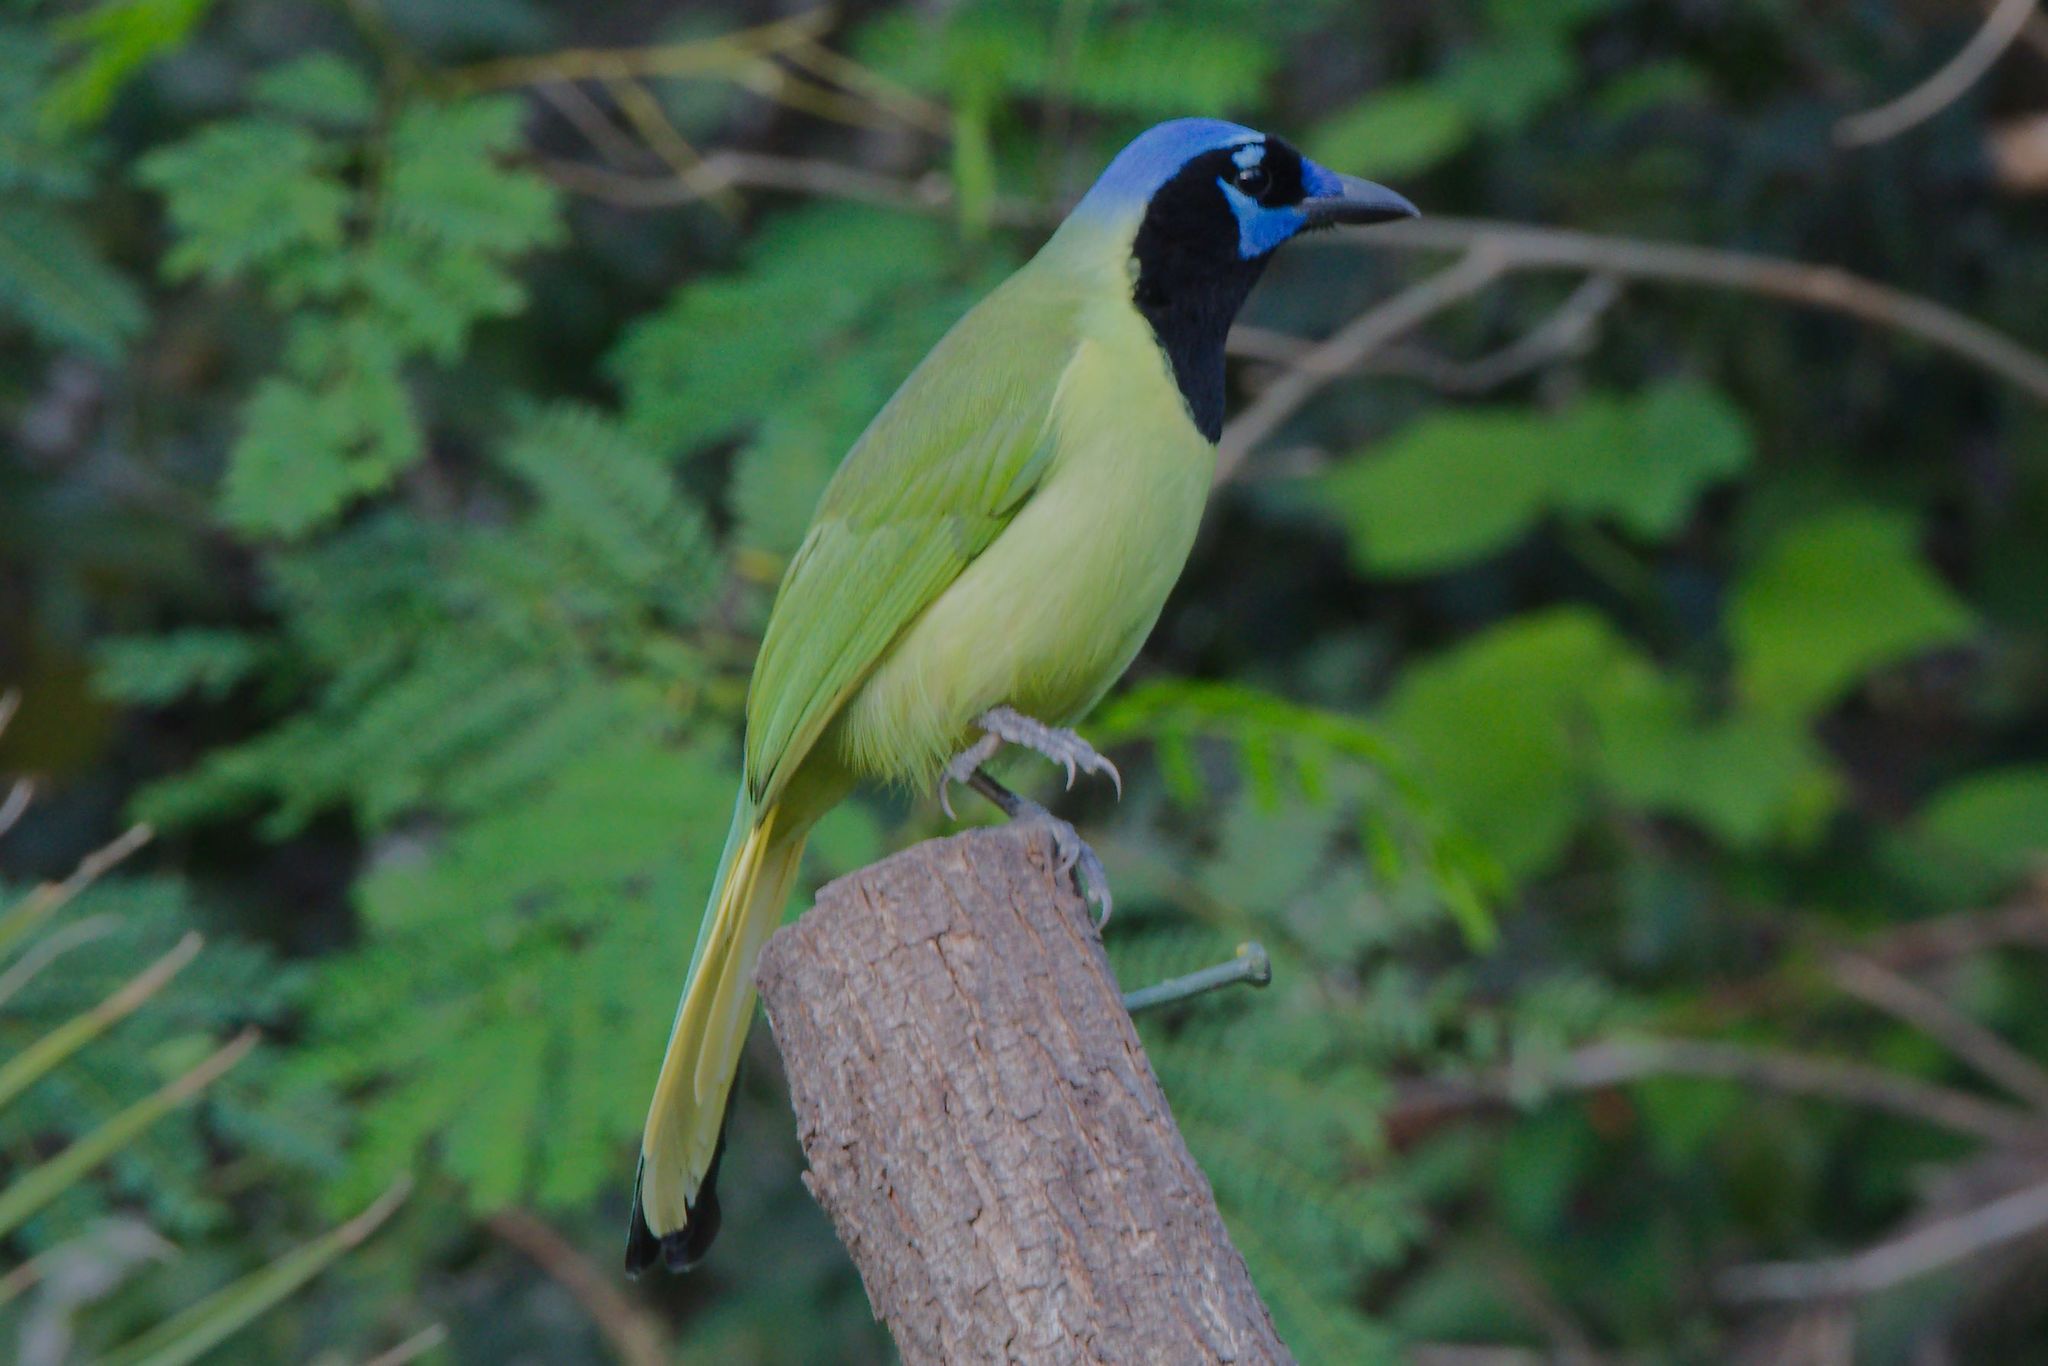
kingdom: Animalia
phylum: Chordata
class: Aves
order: Passeriformes
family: Corvidae
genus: Cyanocorax
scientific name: Cyanocorax yncas
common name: Green jay
